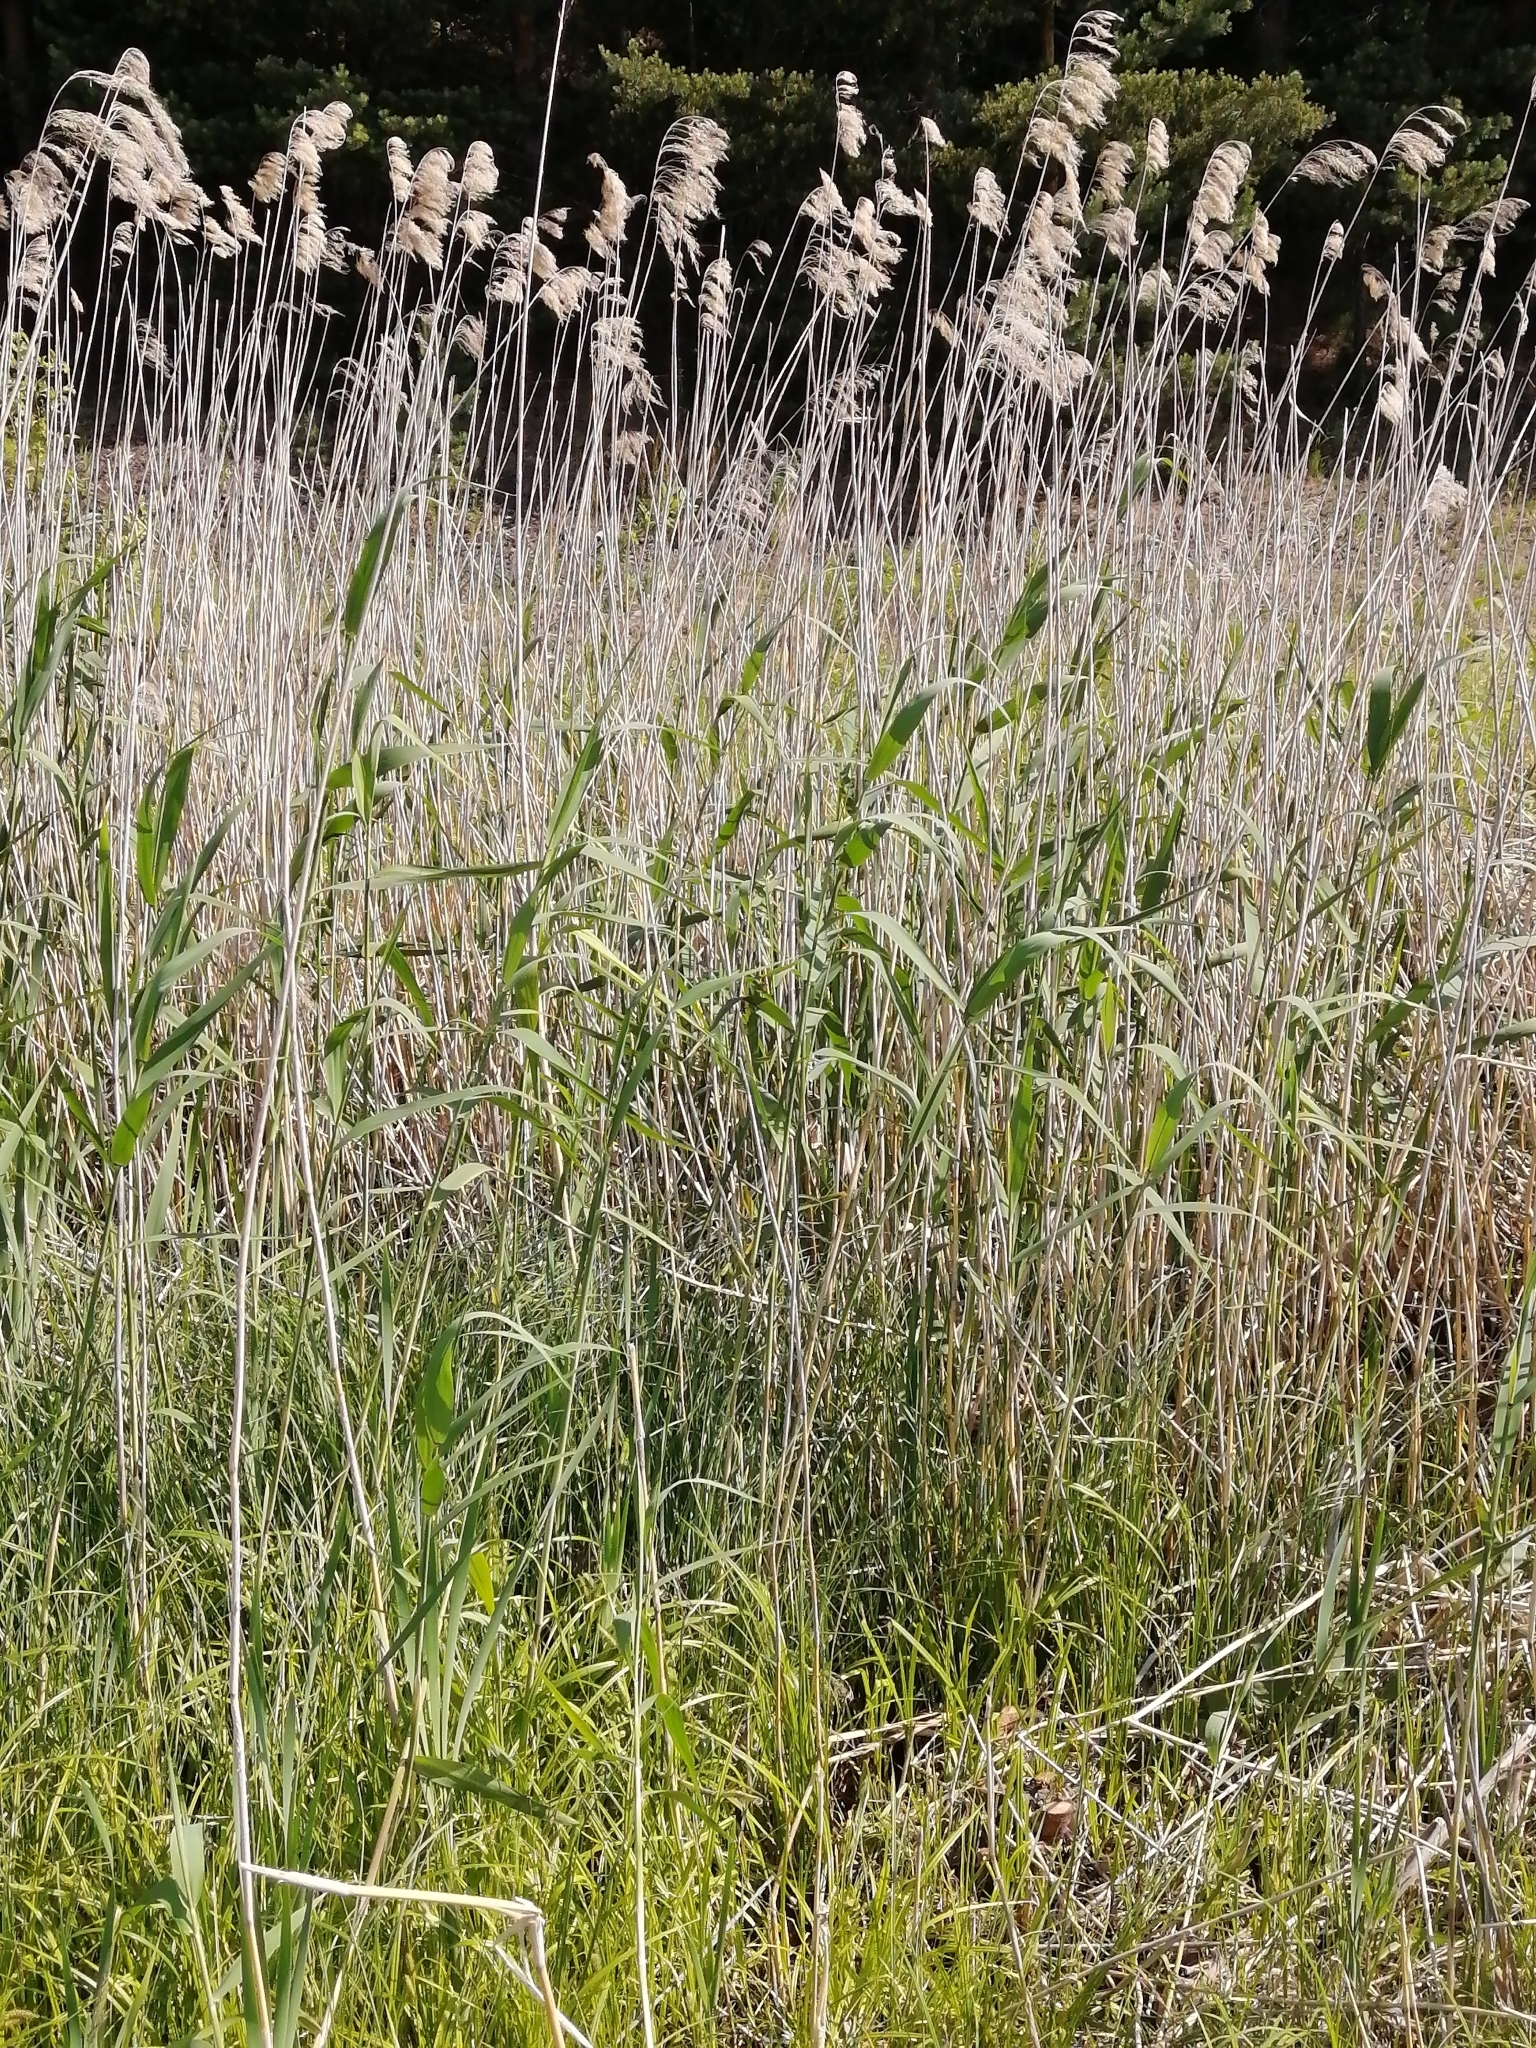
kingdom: Plantae
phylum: Tracheophyta
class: Liliopsida
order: Poales
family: Poaceae
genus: Phragmites
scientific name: Phragmites australis
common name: Common reed
